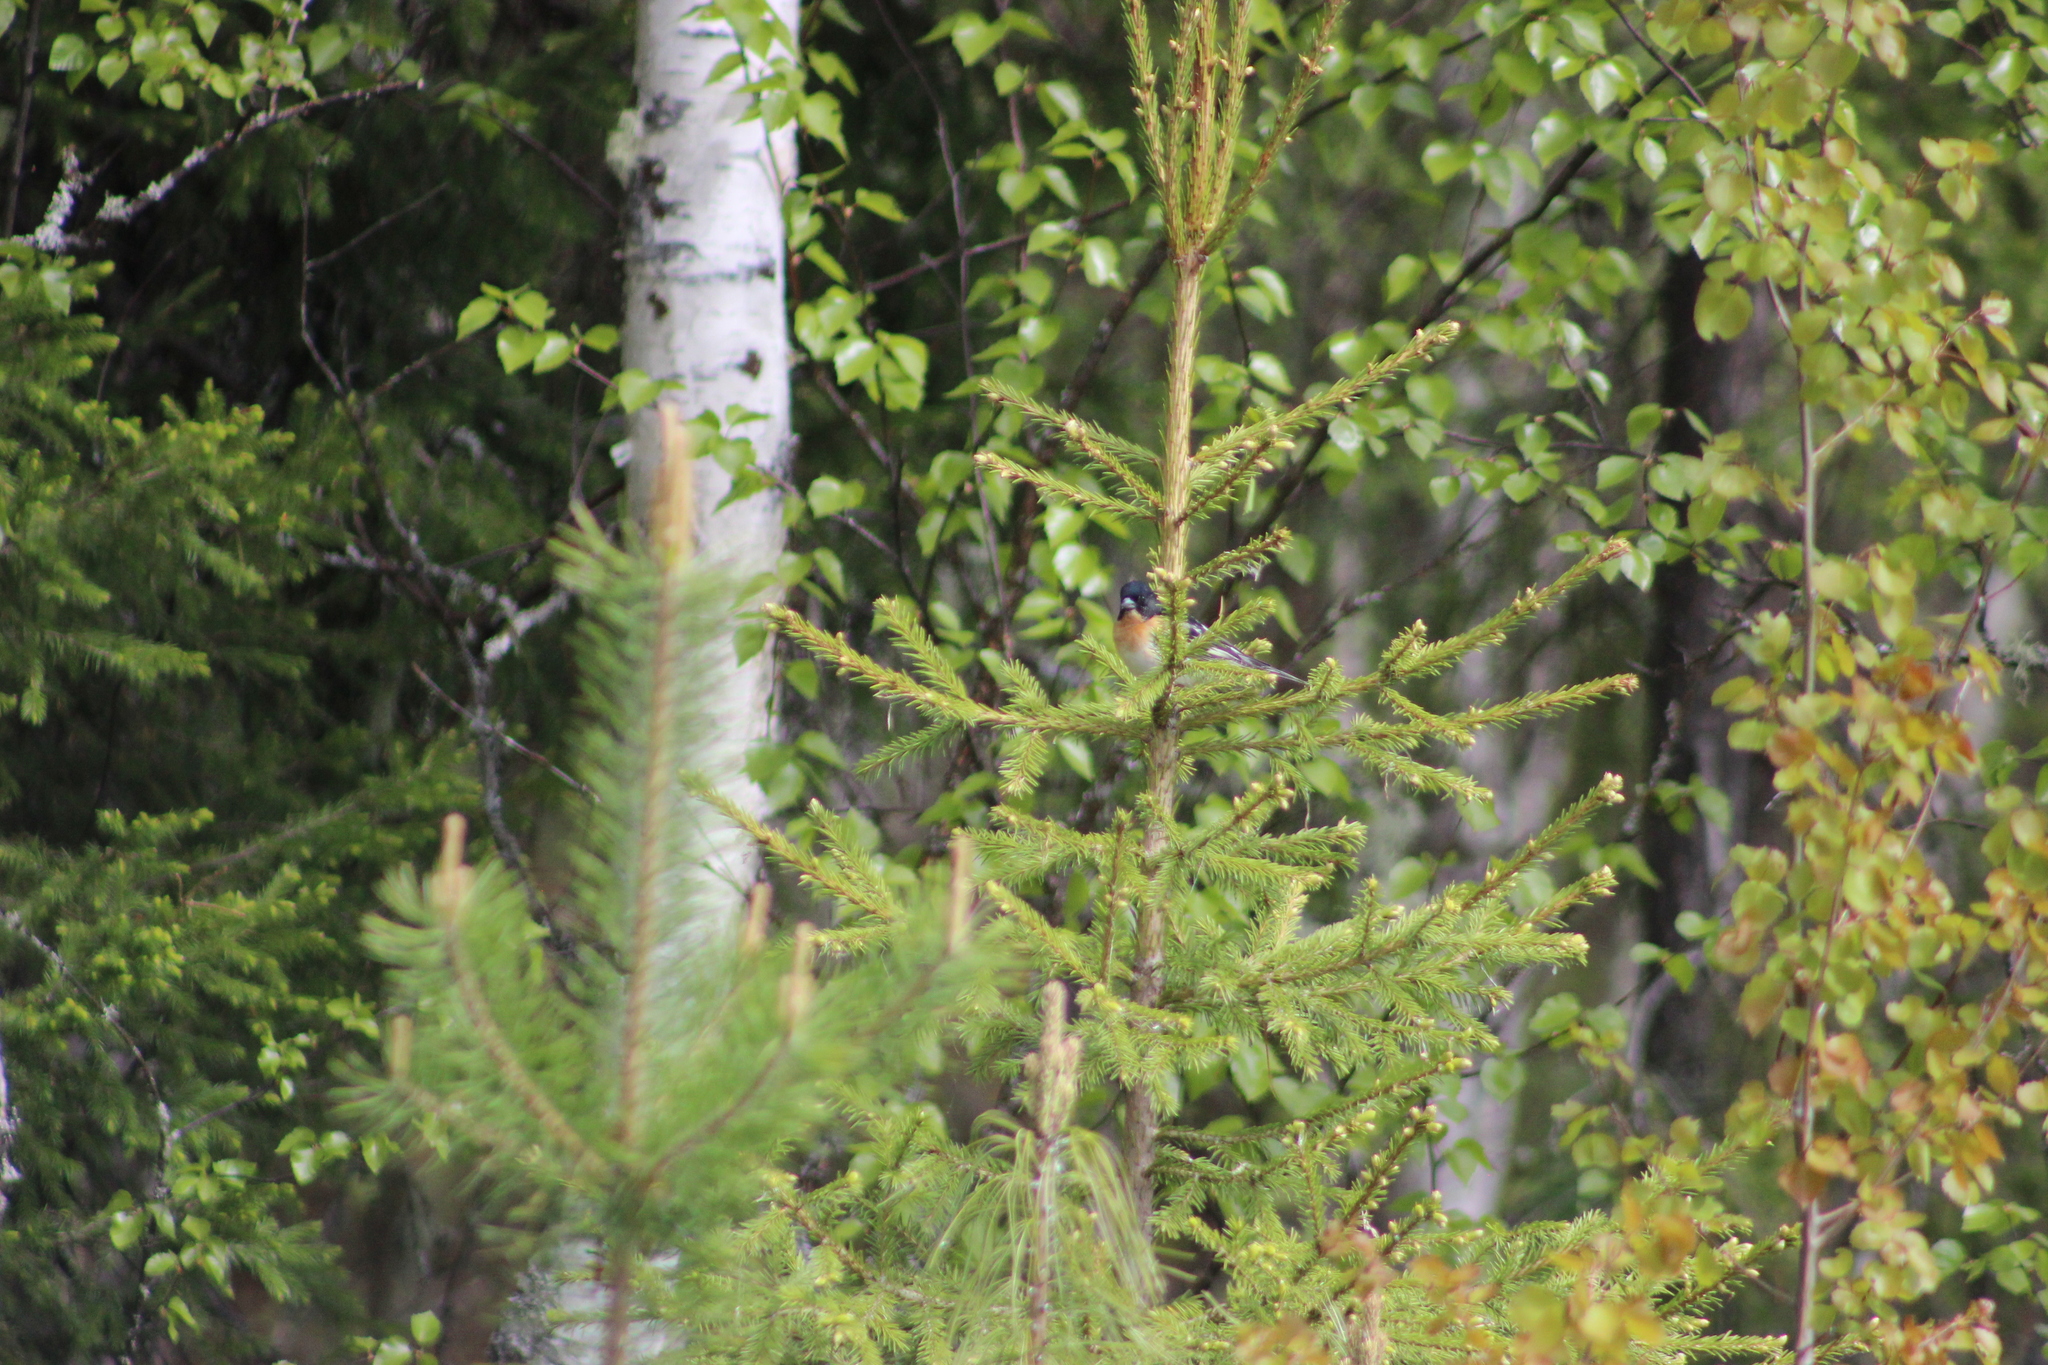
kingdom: Animalia
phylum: Chordata
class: Aves
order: Passeriformes
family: Fringillidae
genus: Fringilla
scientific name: Fringilla montifringilla
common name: Brambling
